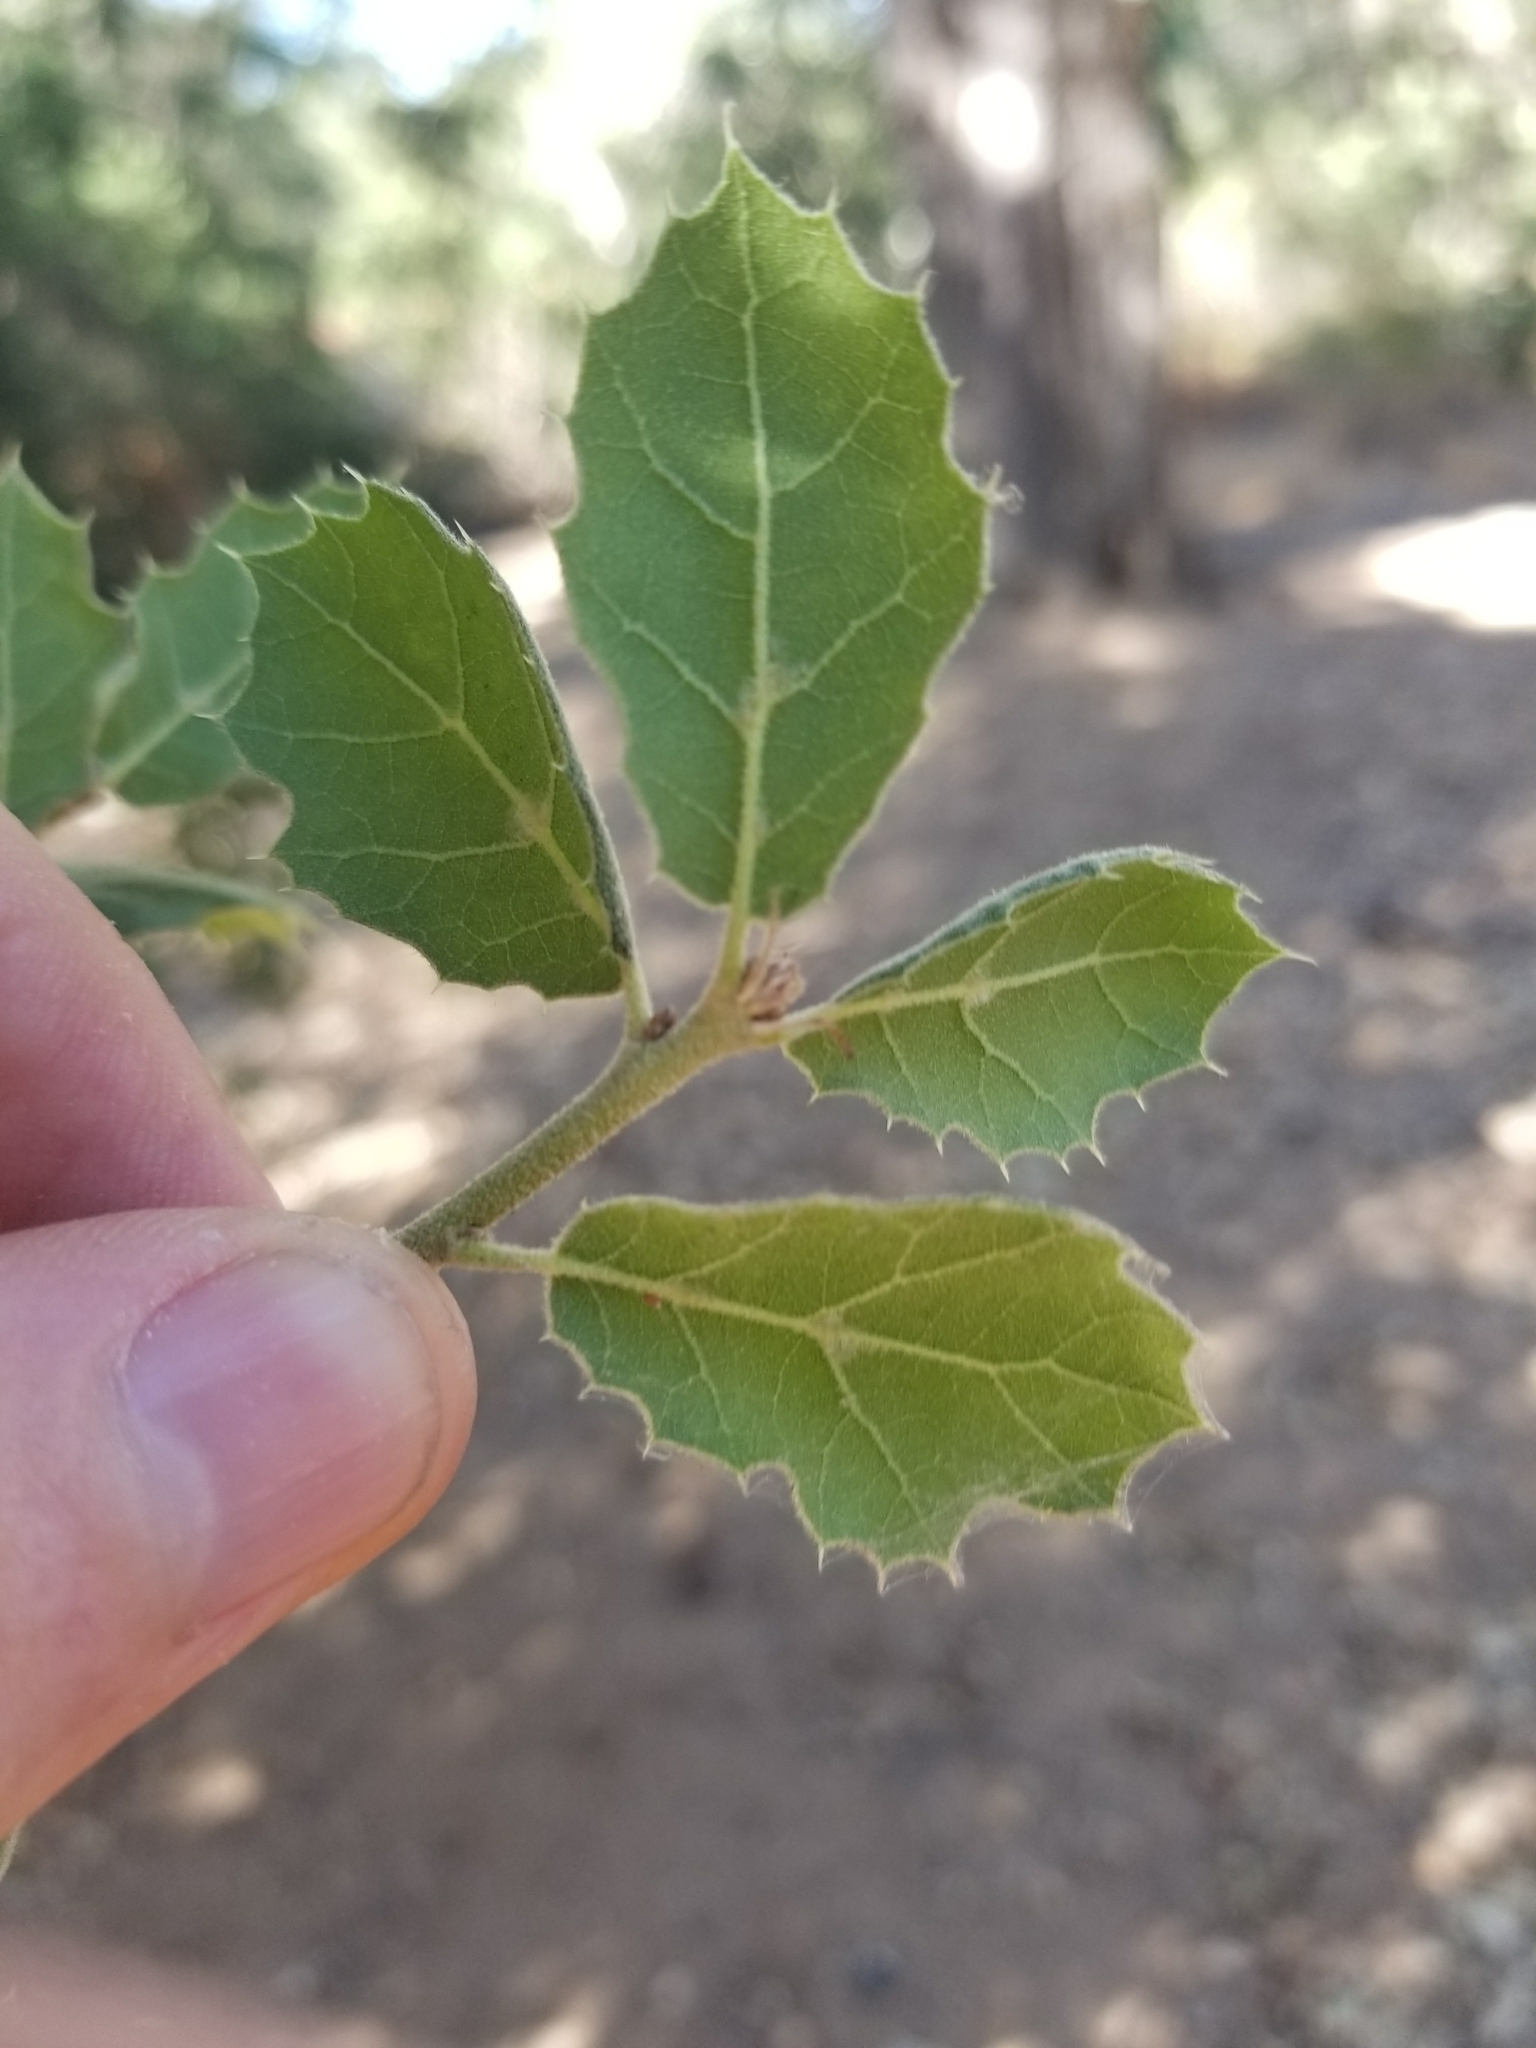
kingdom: Plantae
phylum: Tracheophyta
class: Magnoliopsida
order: Fagales
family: Fagaceae
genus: Quercus
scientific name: Quercus agrifolia
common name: California live oak
